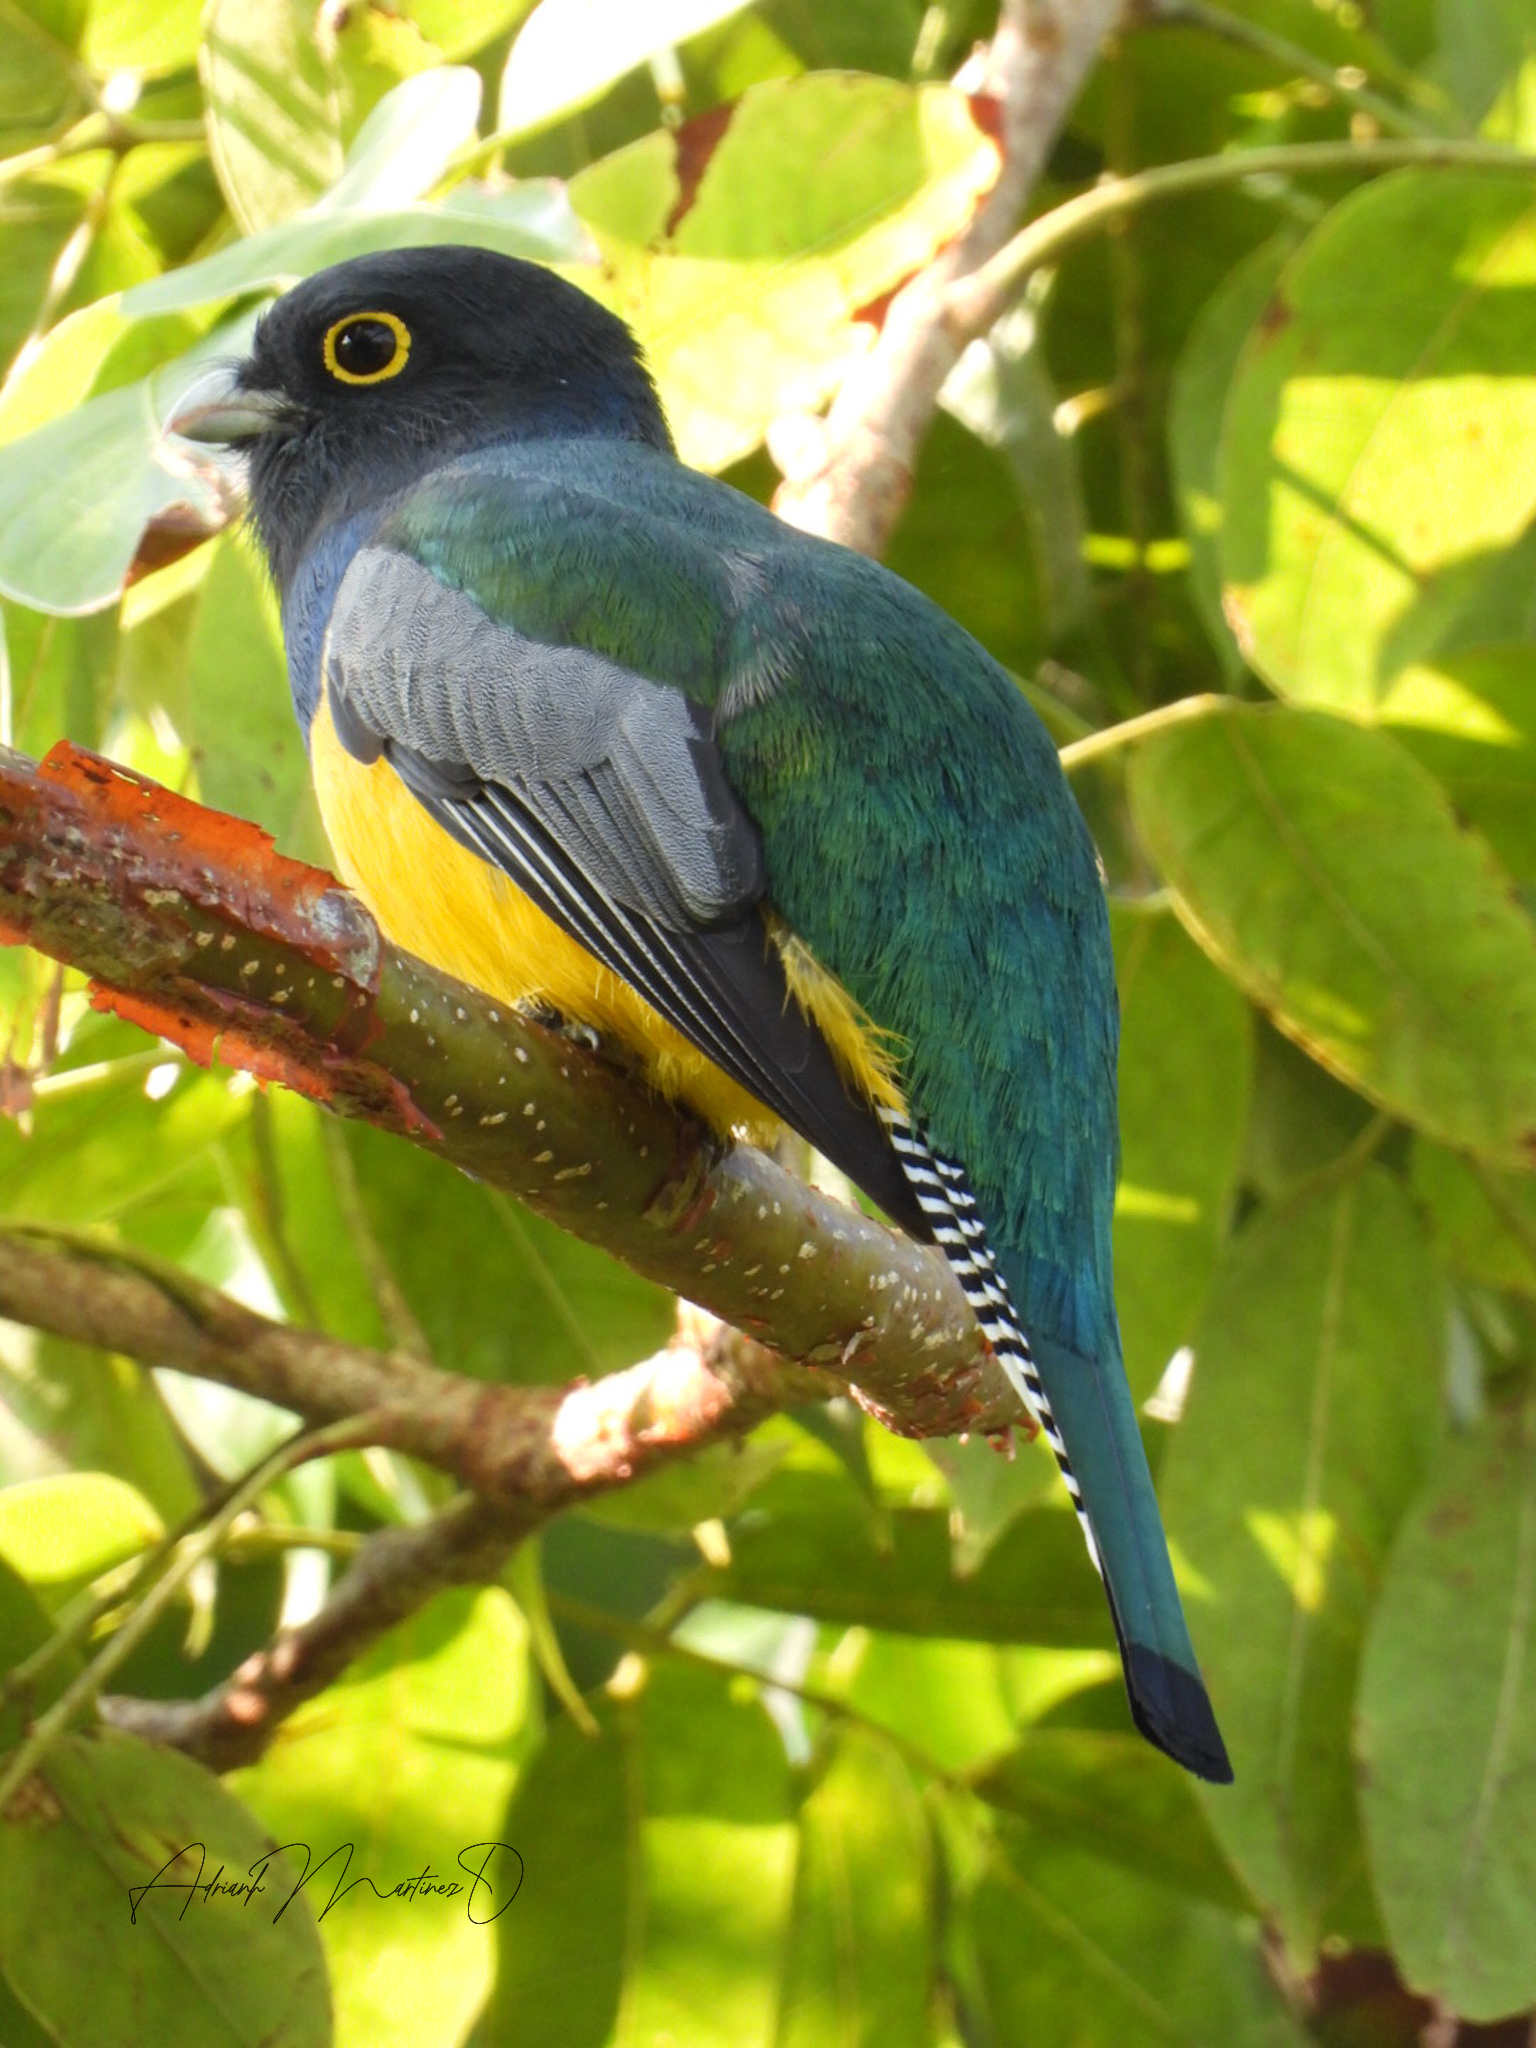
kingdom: Animalia
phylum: Chordata
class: Aves
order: Trogoniformes
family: Trogonidae
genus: Trogon
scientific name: Trogon caligatus
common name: Gartered trogon
